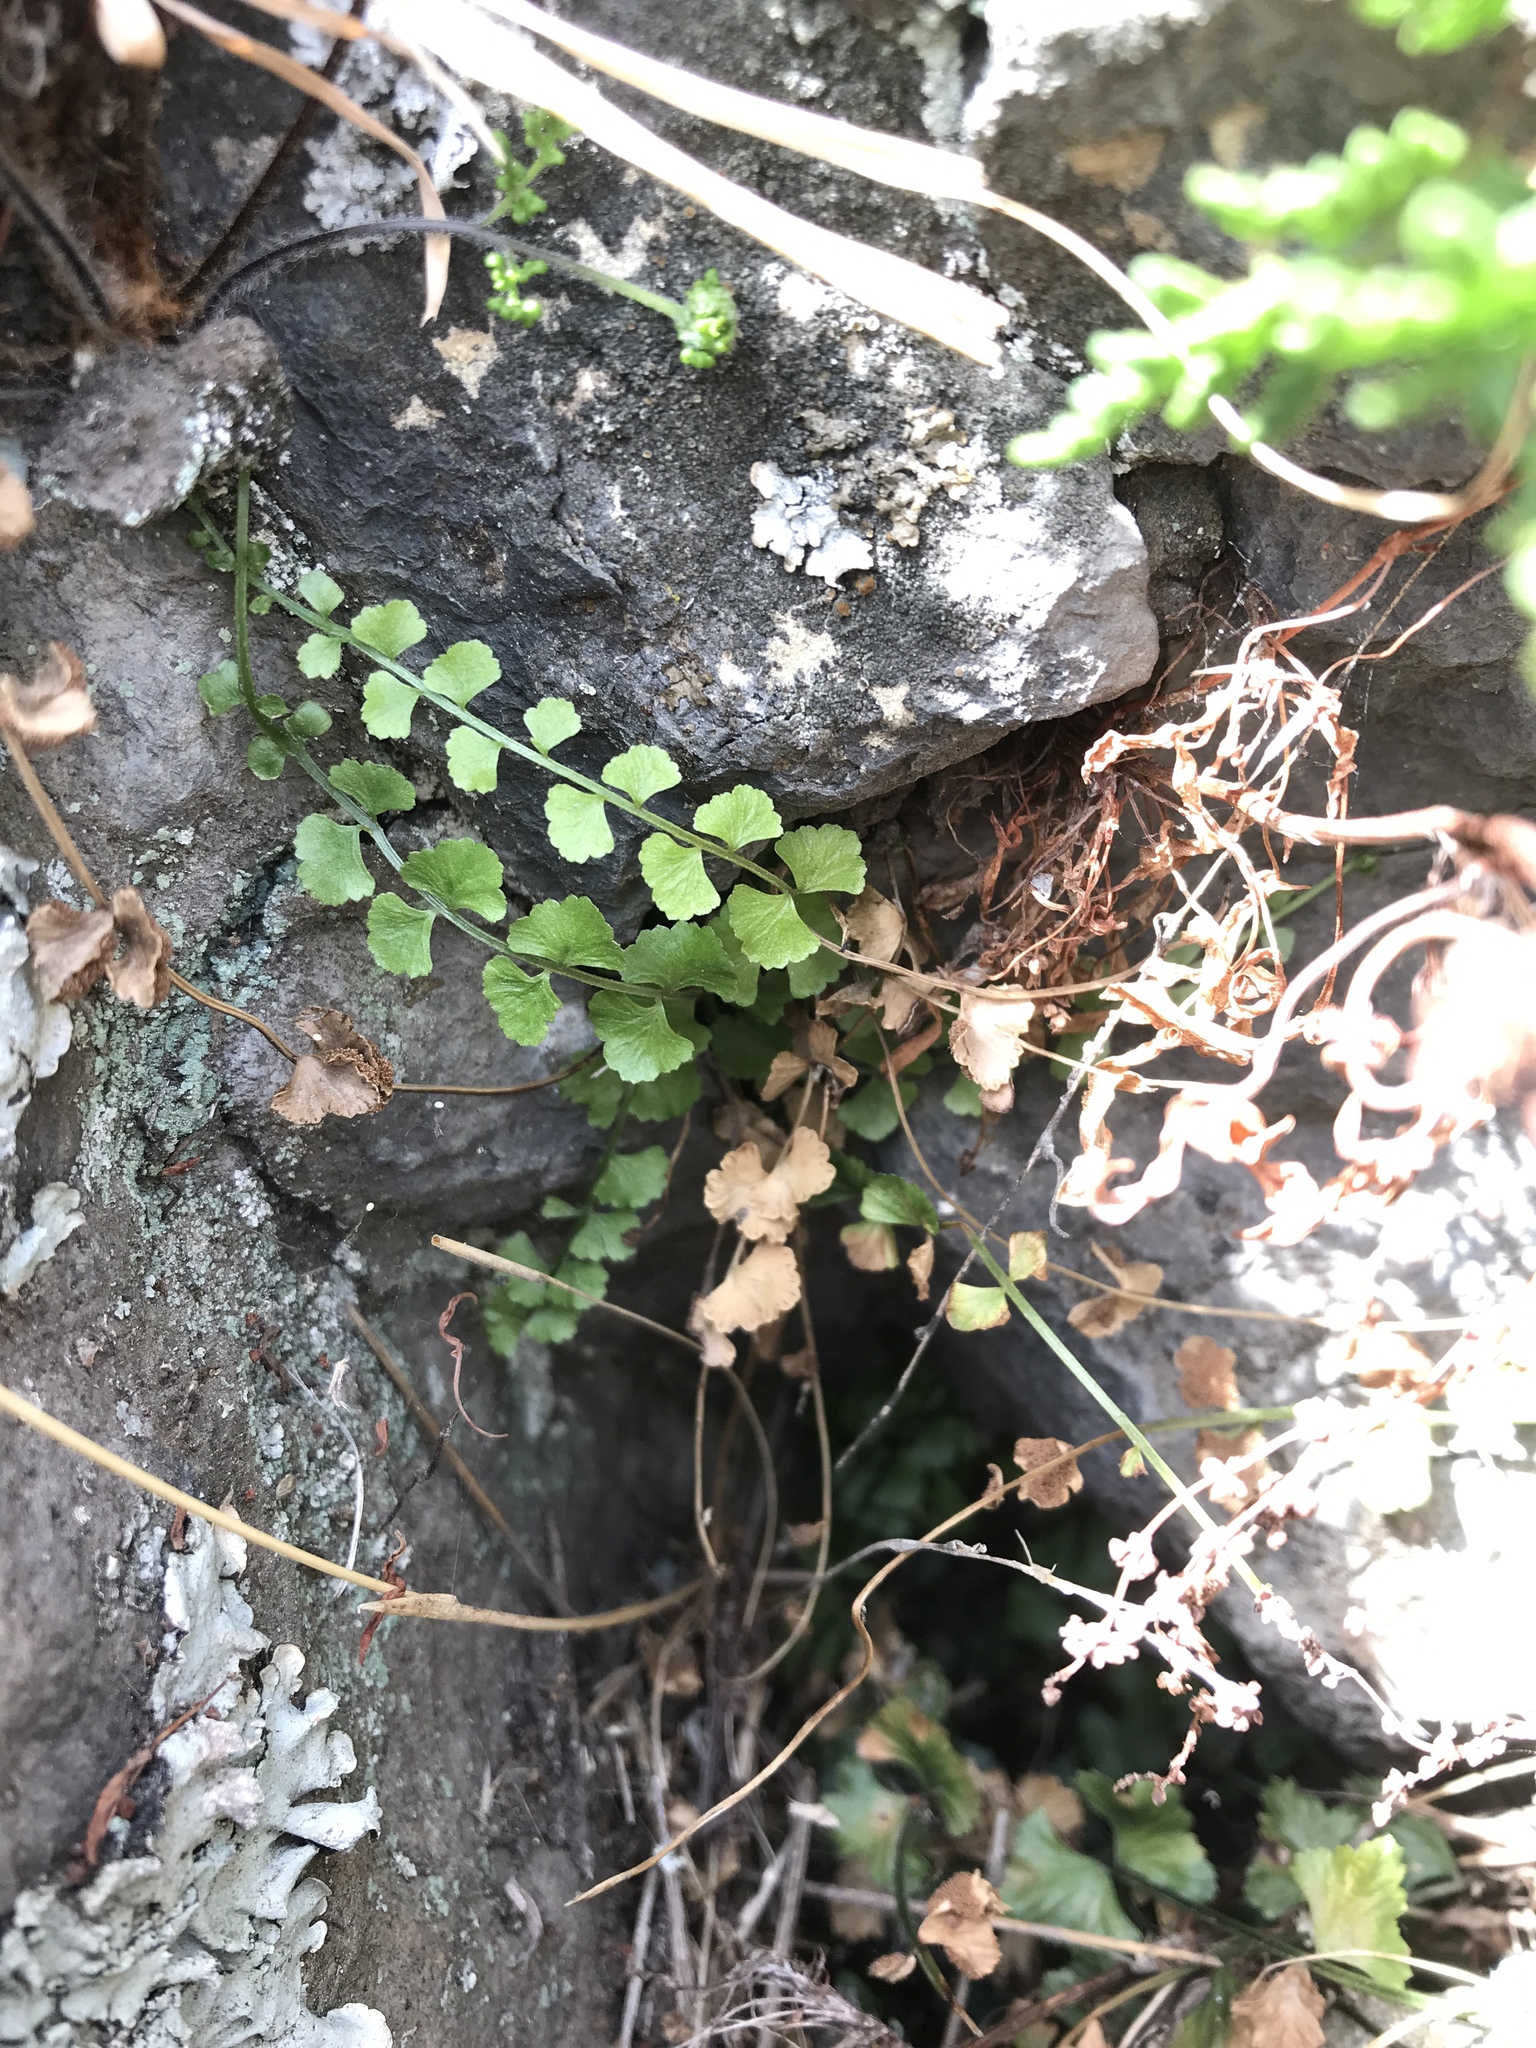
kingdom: Plantae
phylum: Tracheophyta
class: Polypodiopsida
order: Polypodiales
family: Aspleniaceae
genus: Asplenium
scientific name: Asplenium flabellifolium
